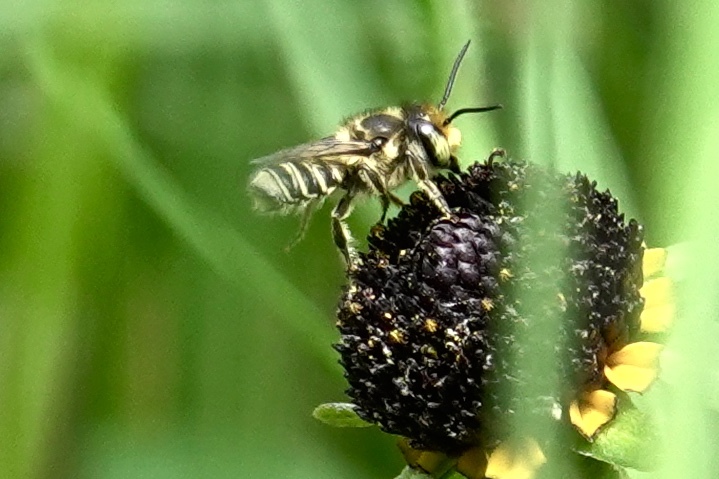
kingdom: Animalia
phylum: Arthropoda
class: Insecta
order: Hymenoptera
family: Megachilidae
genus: Megachile
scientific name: Megachile petulans
